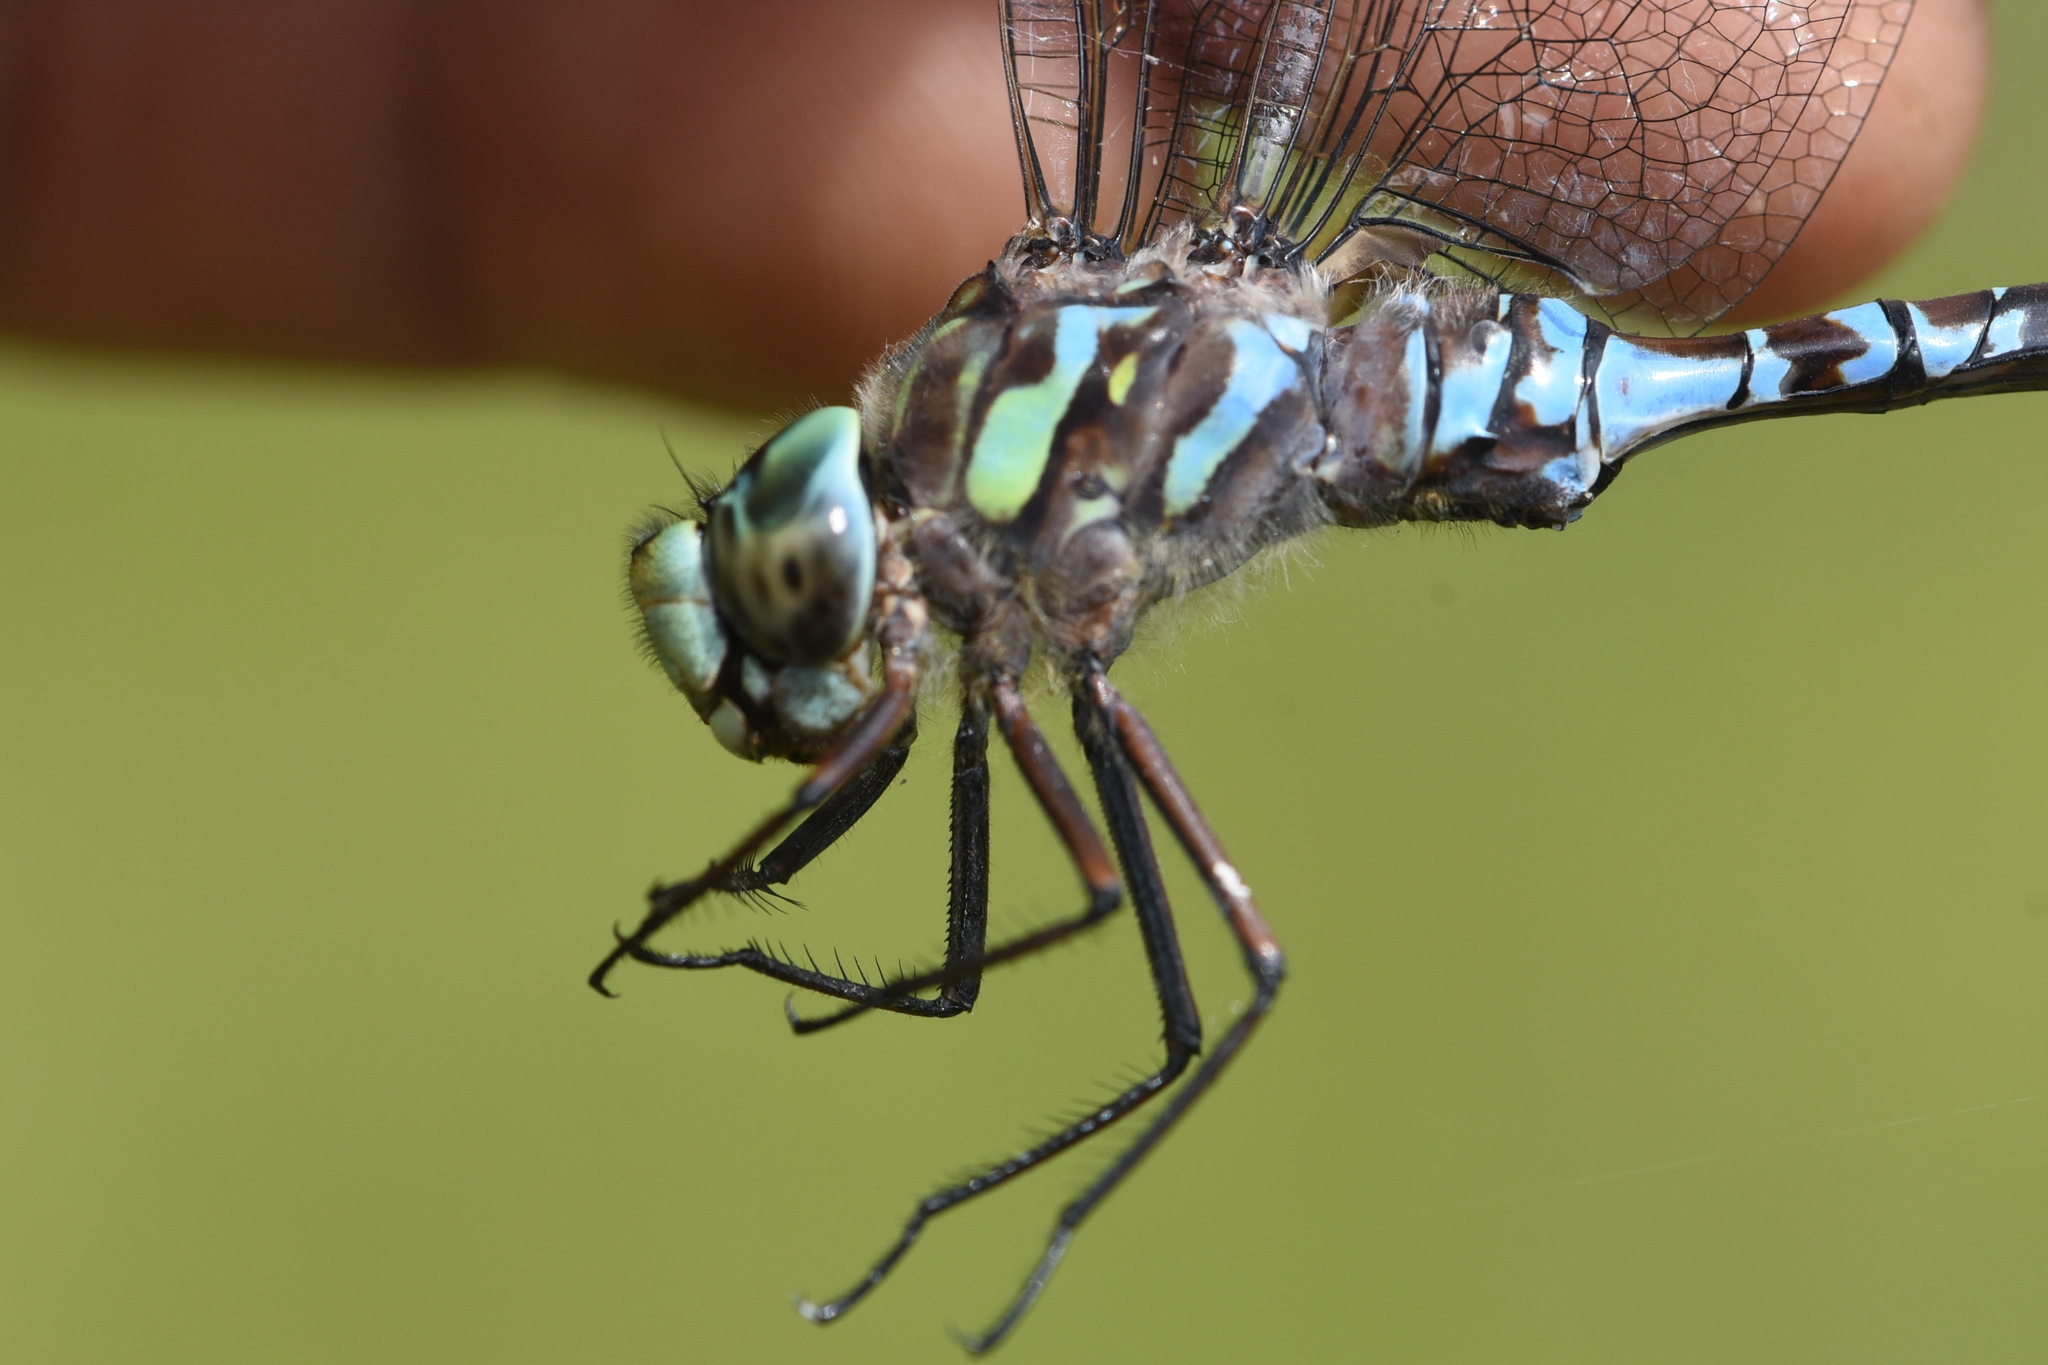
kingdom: Animalia
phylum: Arthropoda
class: Insecta
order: Odonata
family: Aeshnidae
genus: Aeshna
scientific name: Aeshna canadensis
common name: Canada darner
